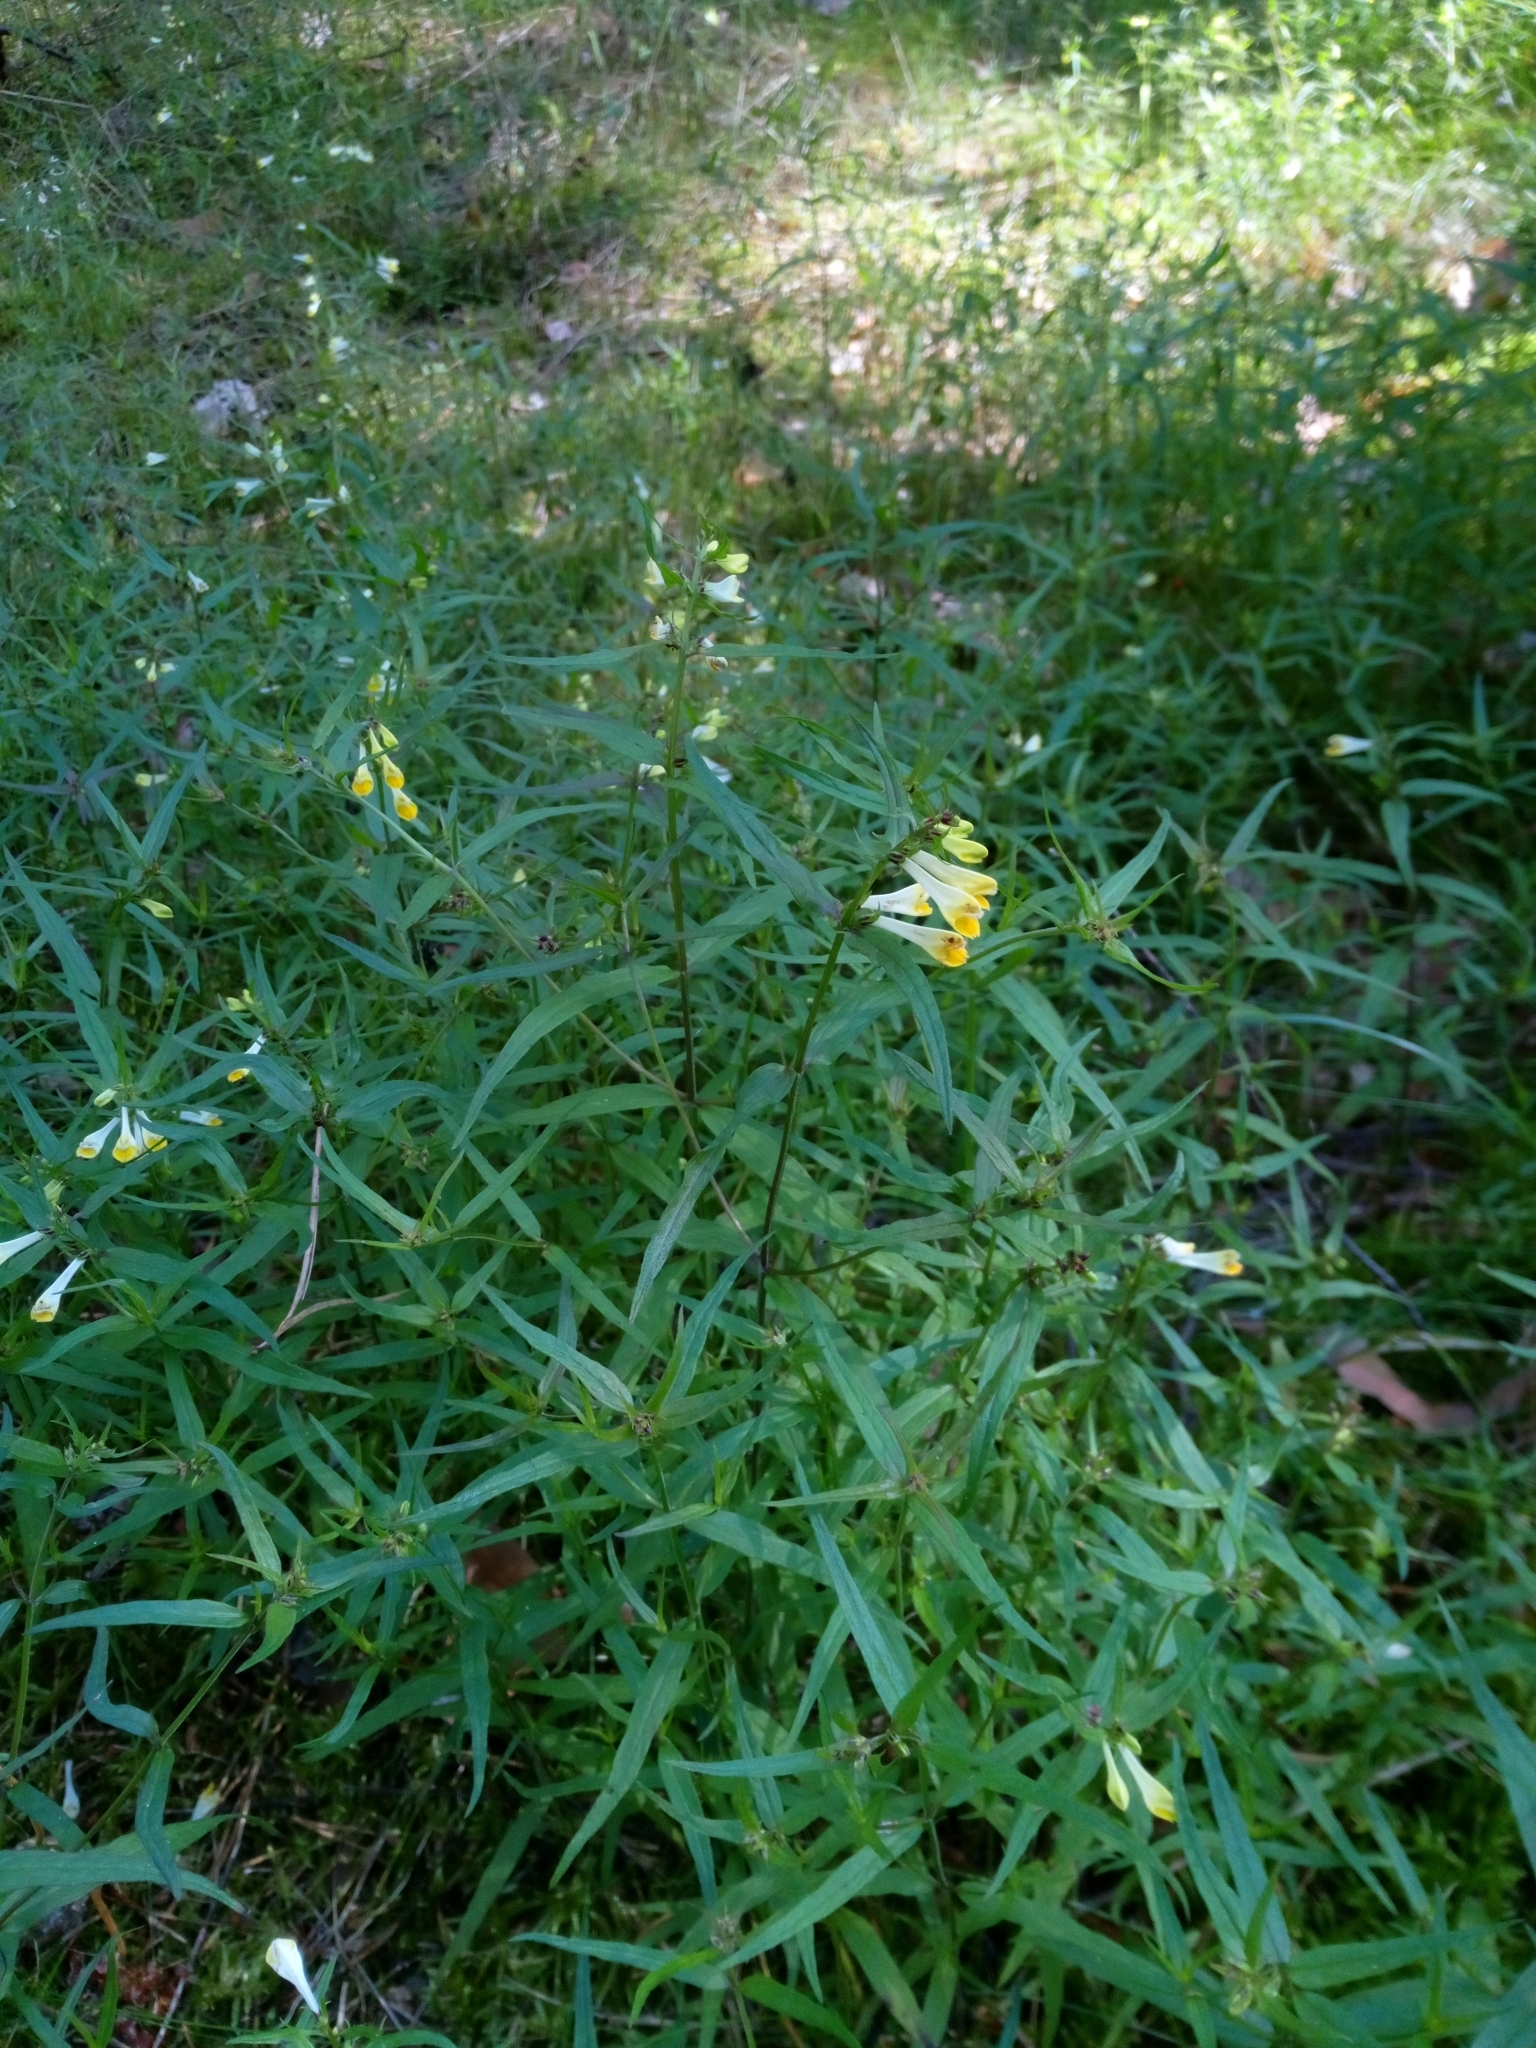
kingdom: Plantae
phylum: Tracheophyta
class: Magnoliopsida
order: Lamiales
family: Orobanchaceae
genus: Melampyrum
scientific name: Melampyrum pratense
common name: Common cow-wheat
